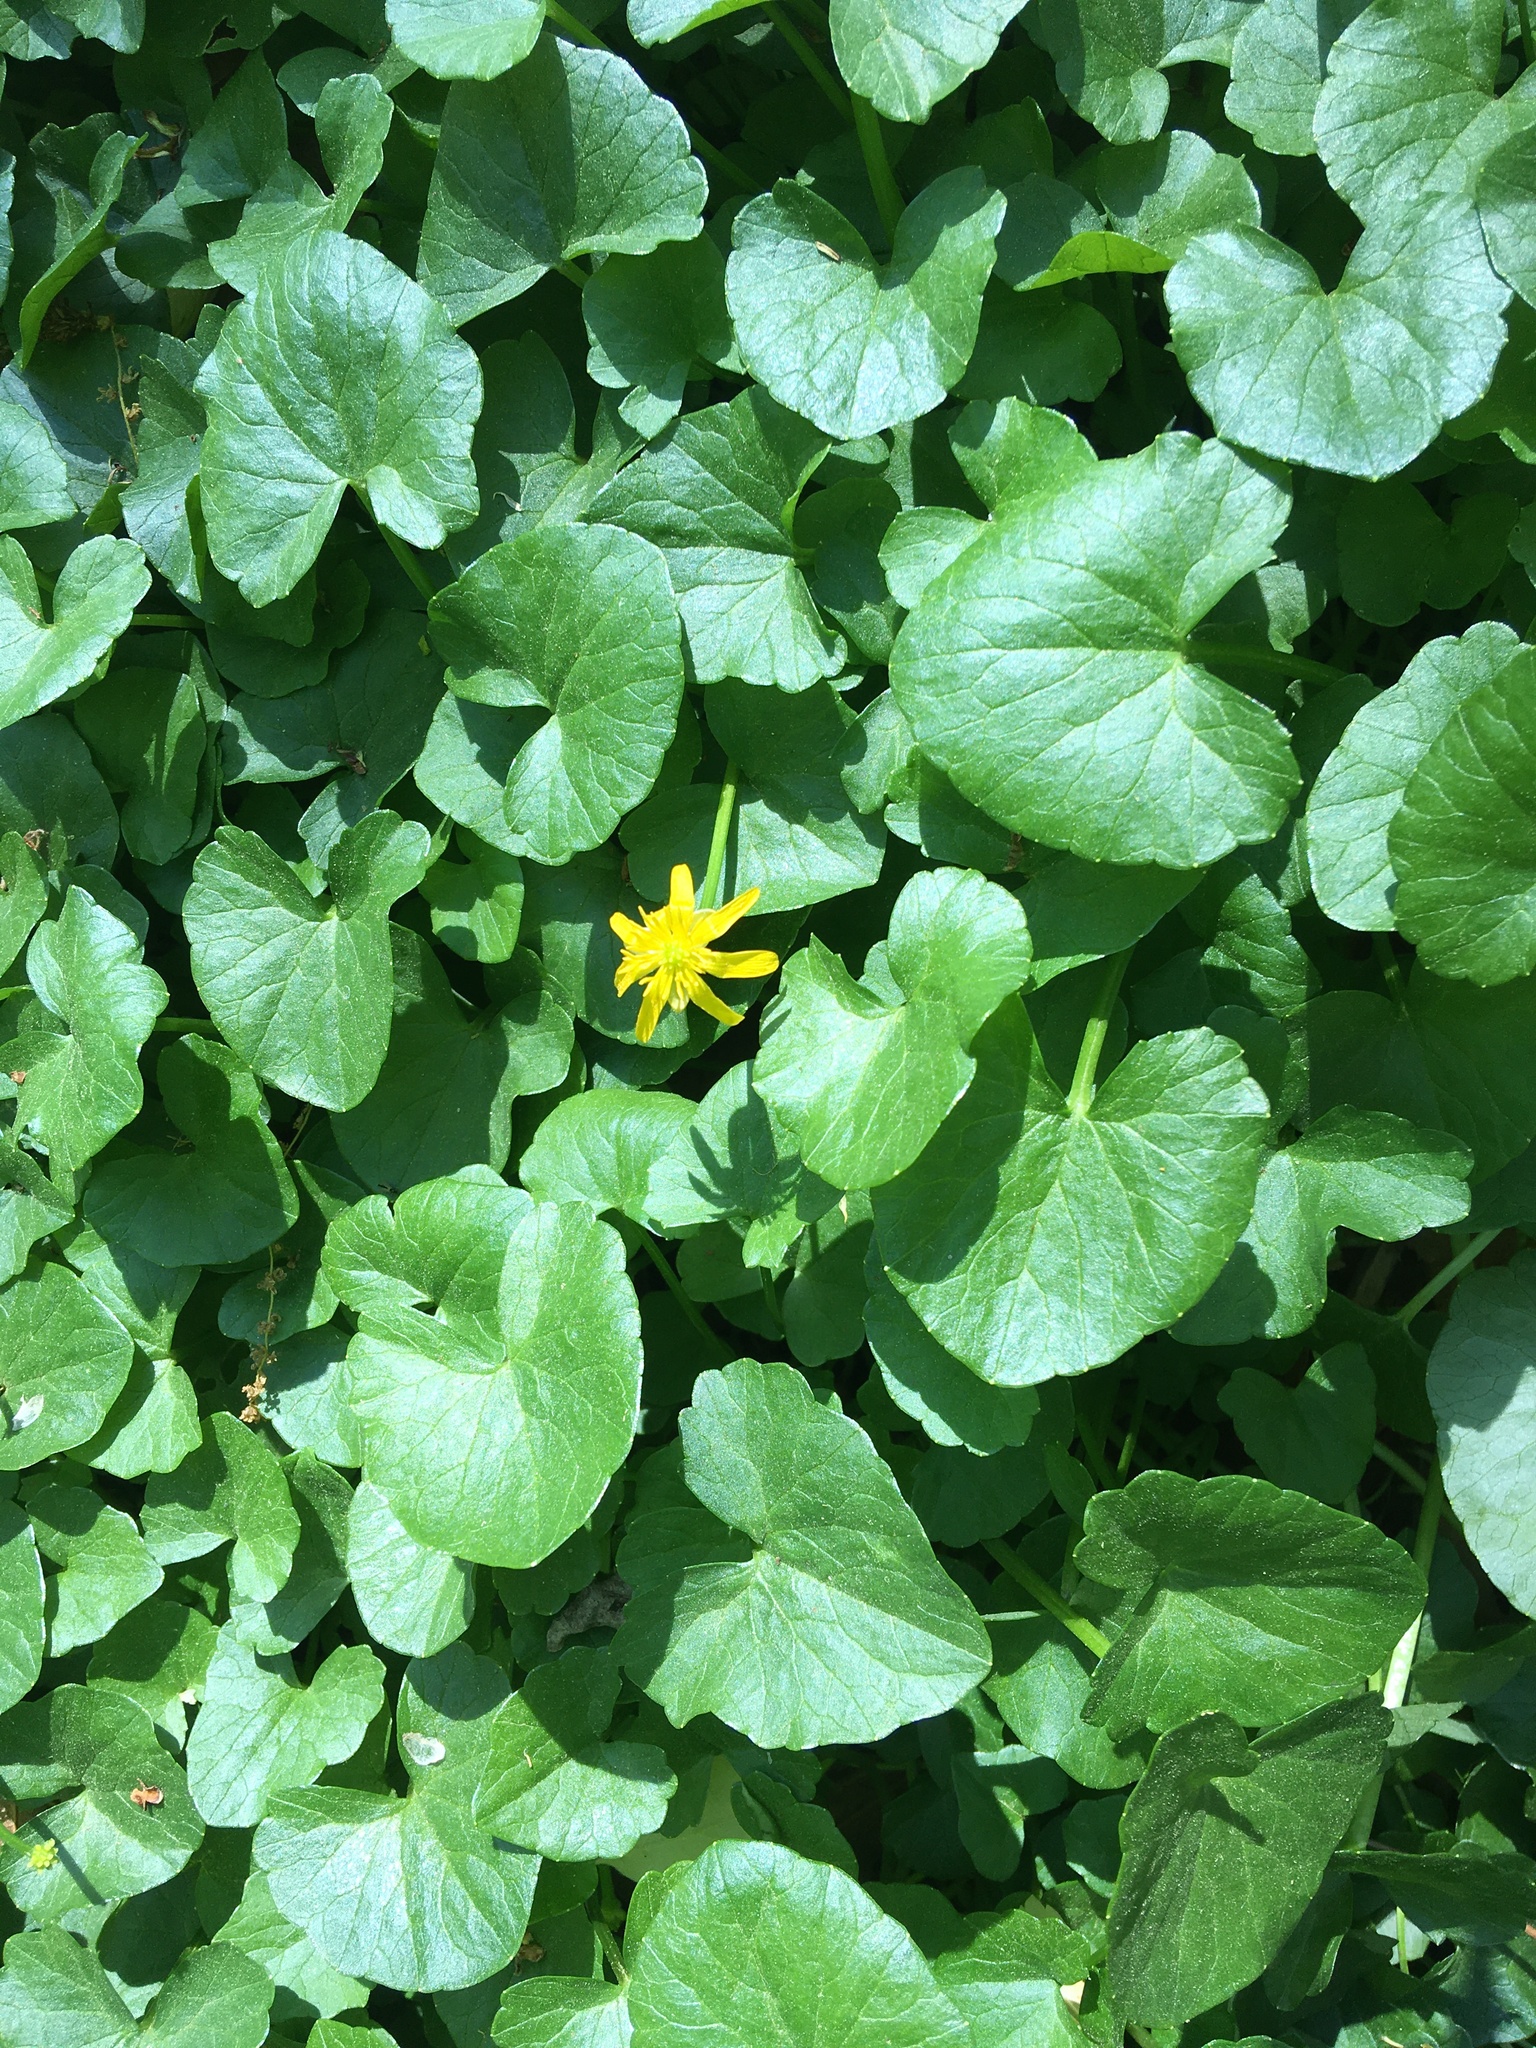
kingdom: Plantae
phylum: Tracheophyta
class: Magnoliopsida
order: Ranunculales
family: Ranunculaceae
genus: Ficaria
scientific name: Ficaria verna
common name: Lesser celandine
